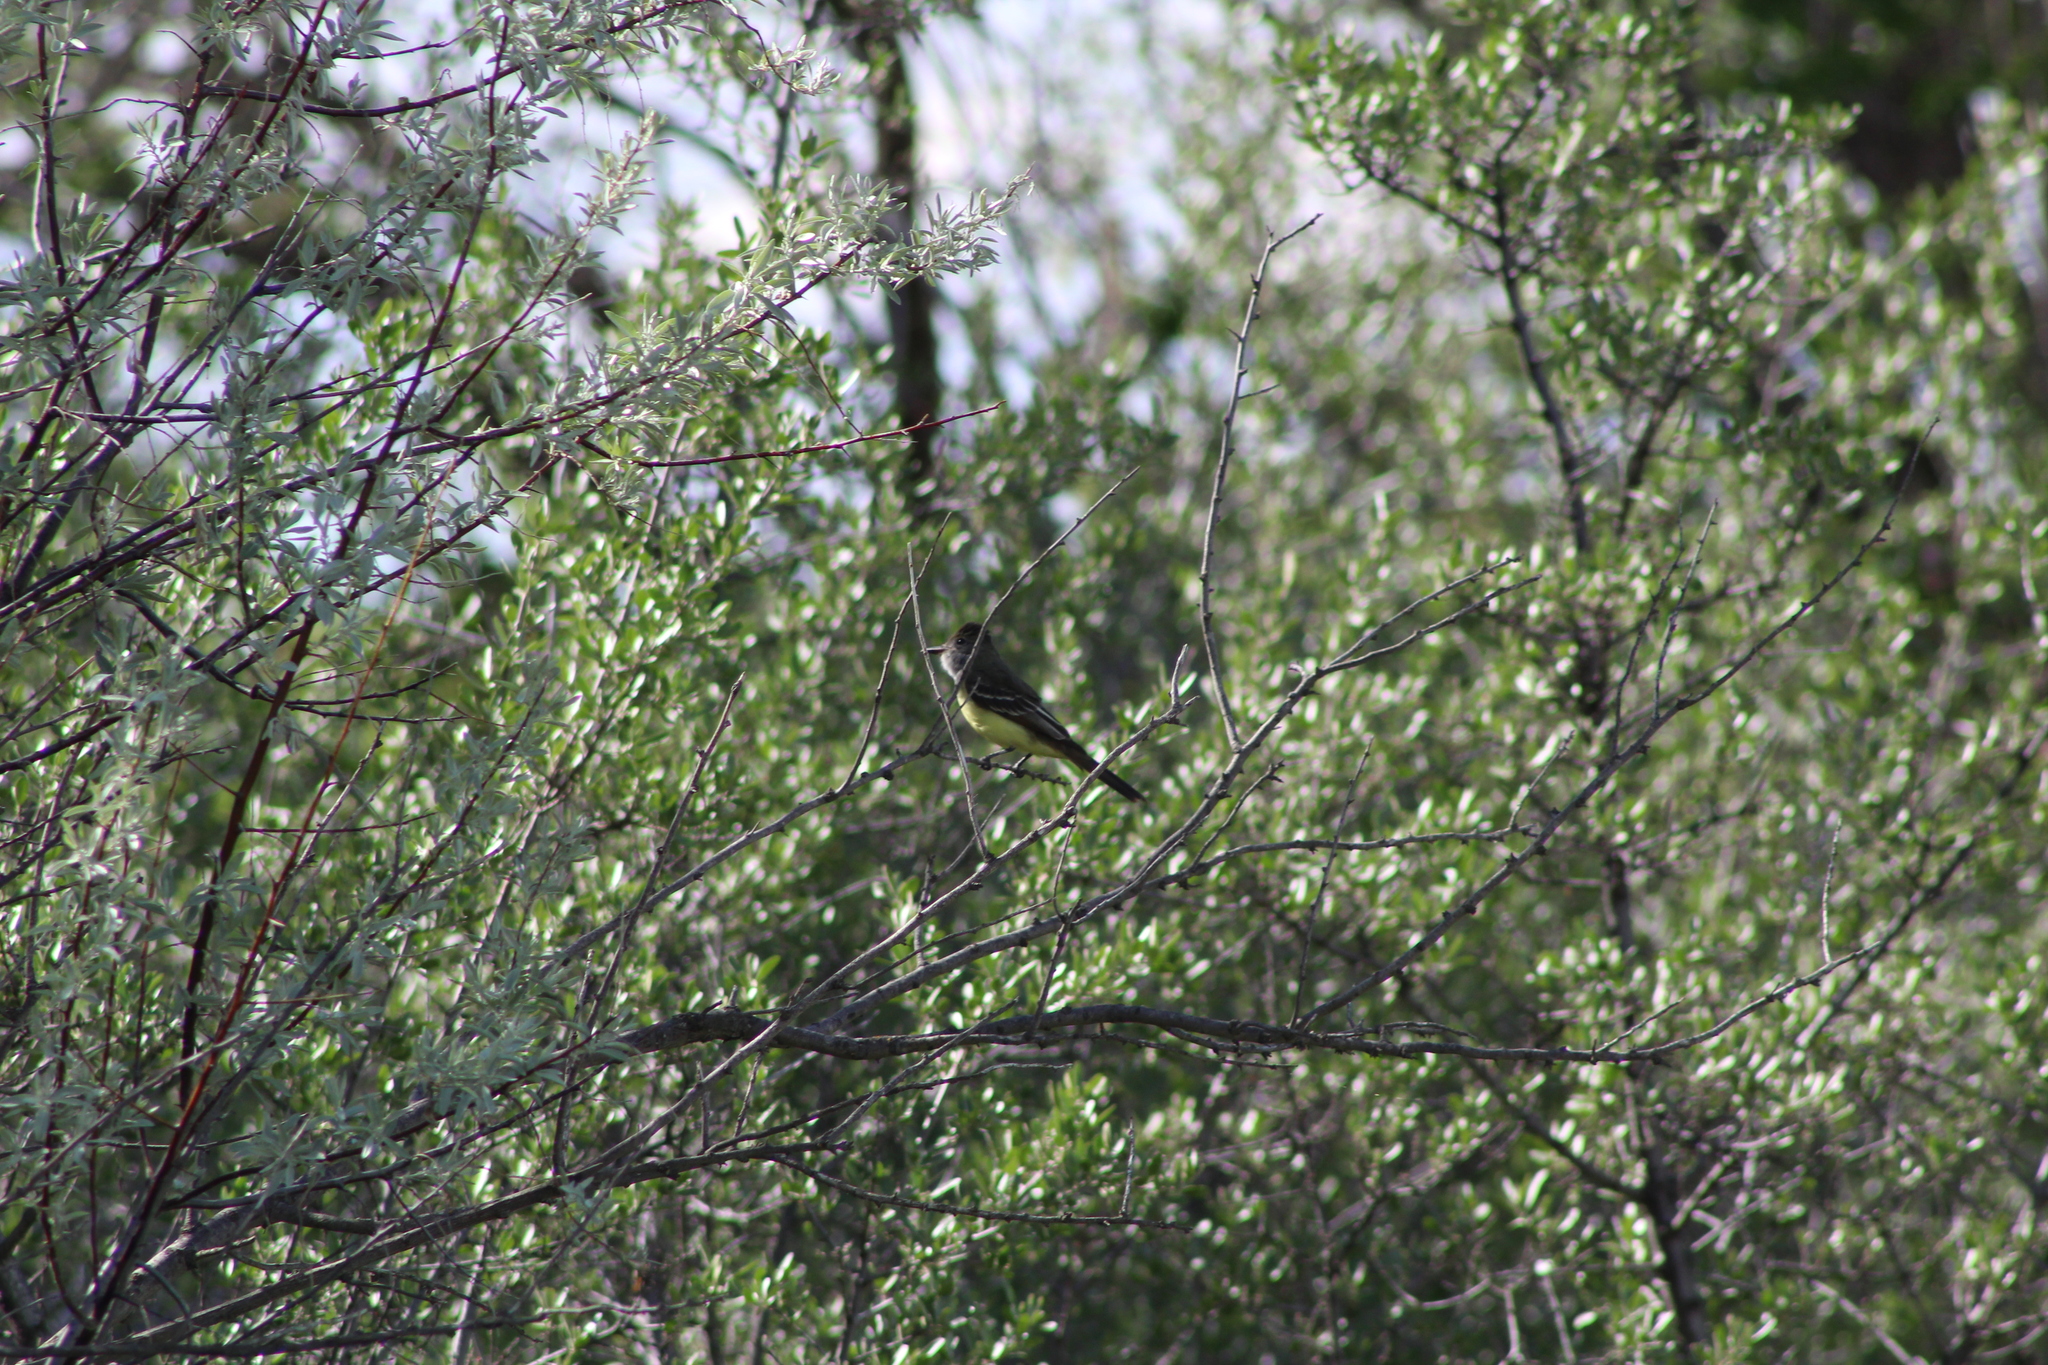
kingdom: Animalia
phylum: Chordata
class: Aves
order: Passeriformes
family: Tyrannidae
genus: Myiarchus
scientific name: Myiarchus crinitus
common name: Great crested flycatcher
